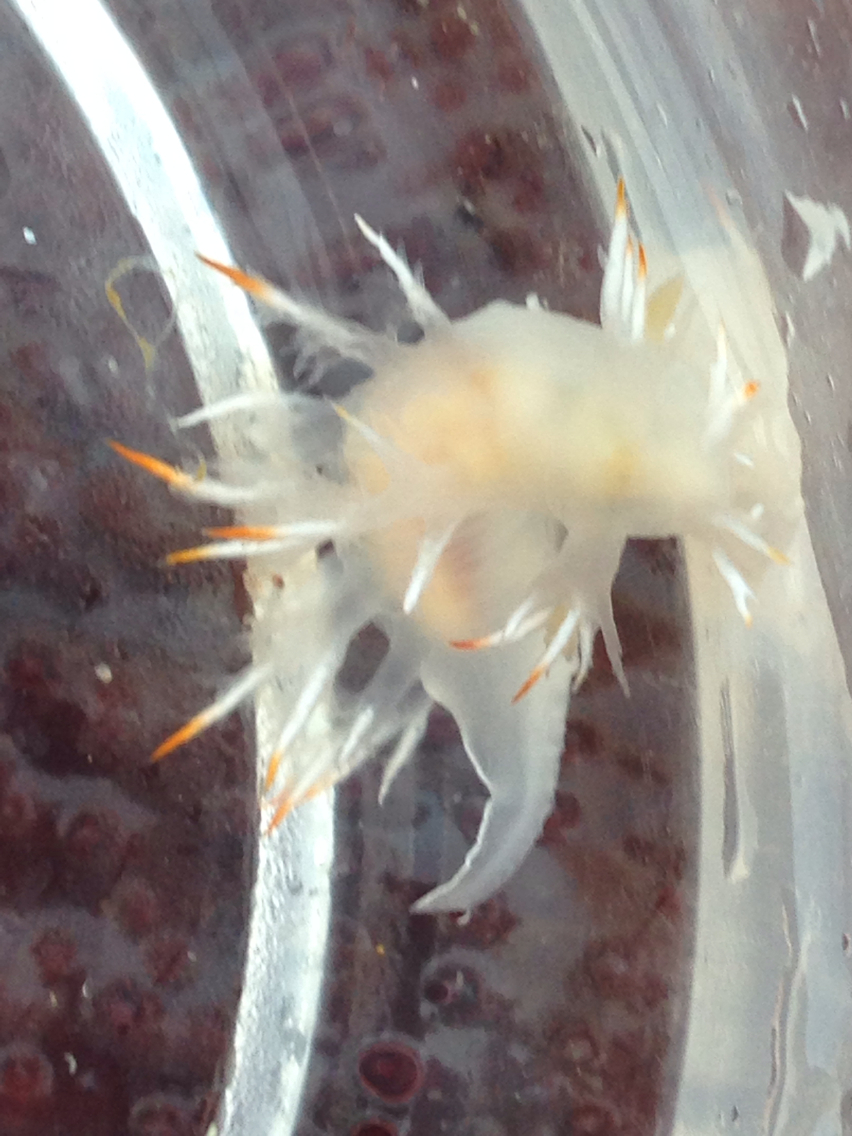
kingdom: Animalia
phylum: Mollusca
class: Gastropoda
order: Nudibranchia
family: Dendronotidae
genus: Dendronotus
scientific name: Dendronotus albus
